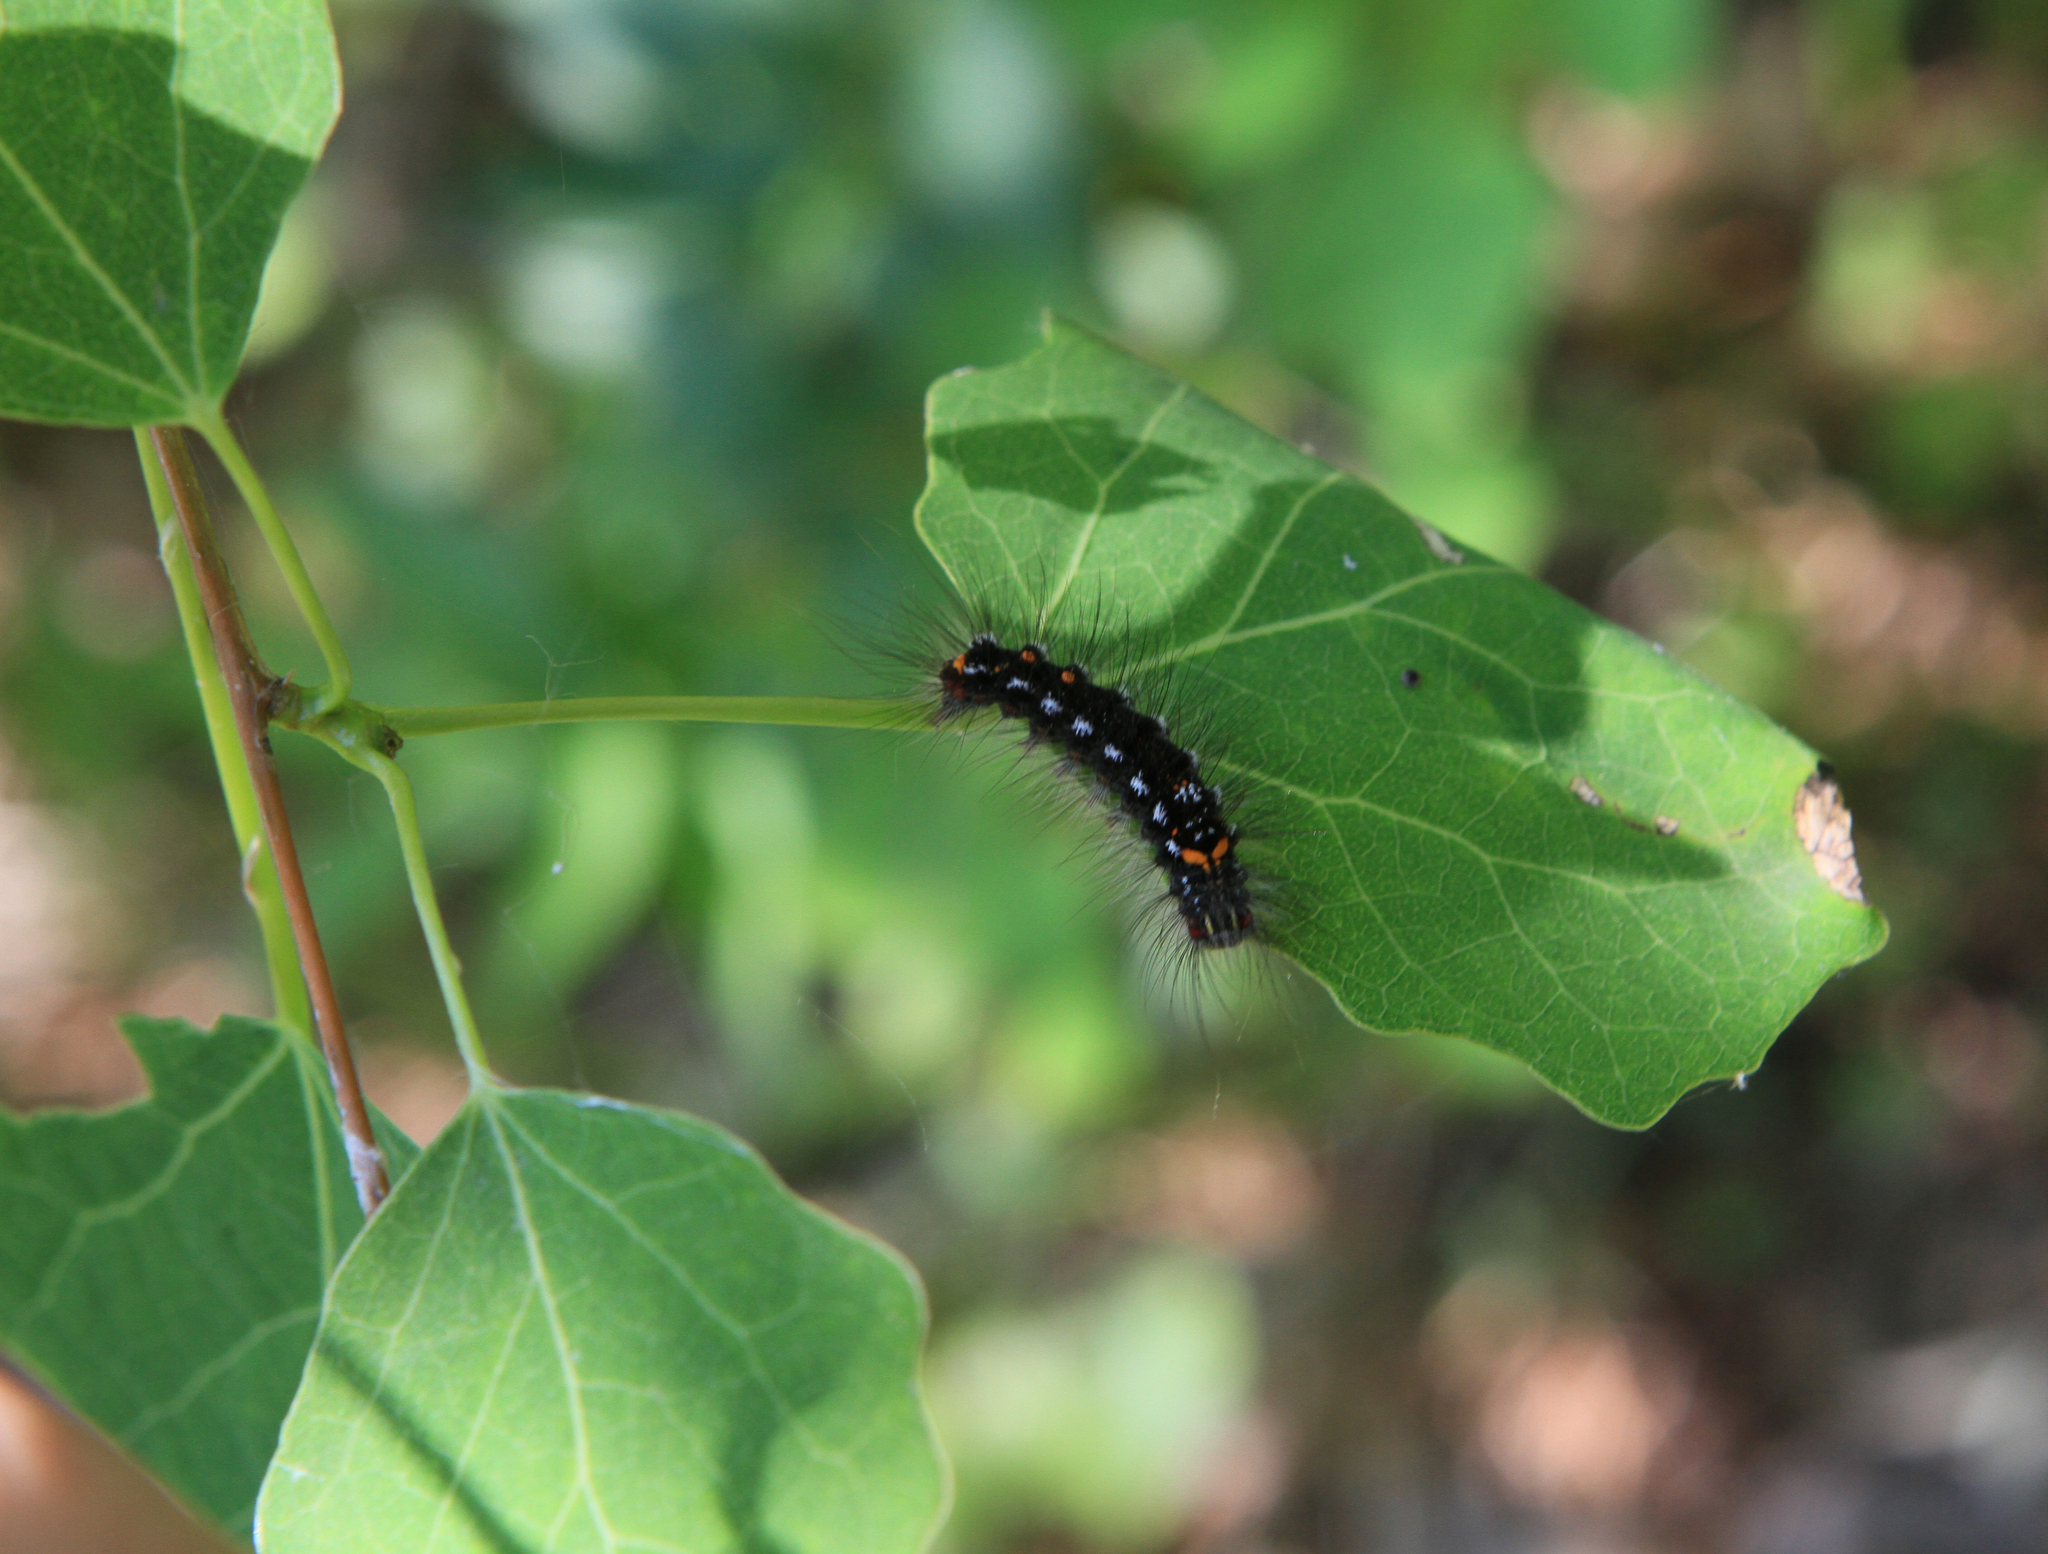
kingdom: Animalia
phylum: Arthropoda
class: Insecta
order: Lepidoptera
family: Erebidae
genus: Sphrageidus
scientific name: Sphrageidus similis
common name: Yellow-tail
